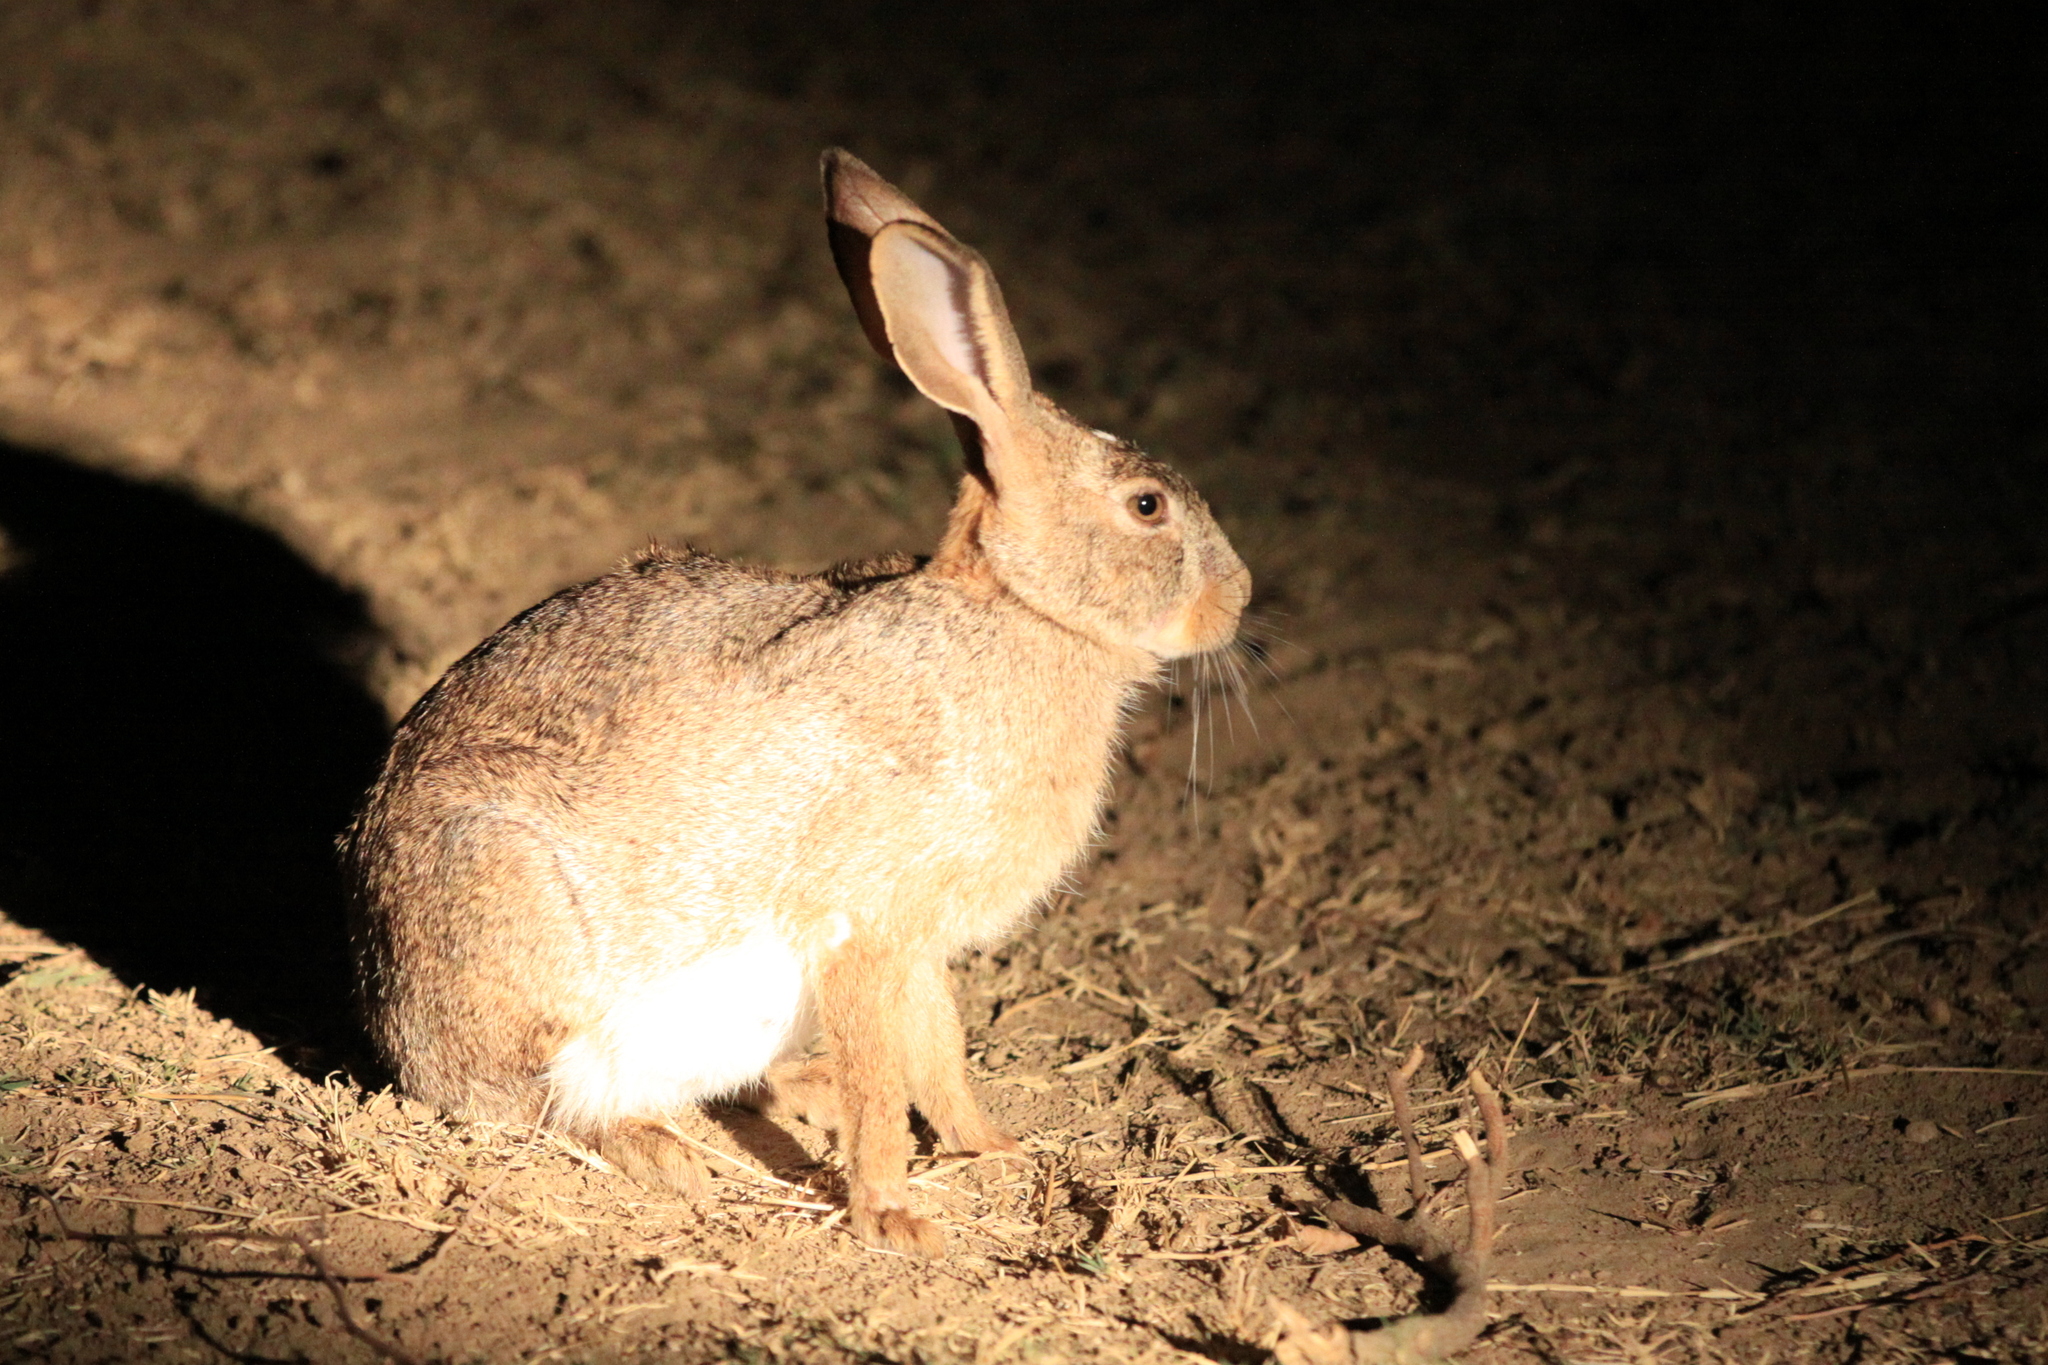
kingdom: Animalia
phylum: Chordata
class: Mammalia
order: Lagomorpha
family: Leporidae
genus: Lepus
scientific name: Lepus victoriae
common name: African savanna hare
